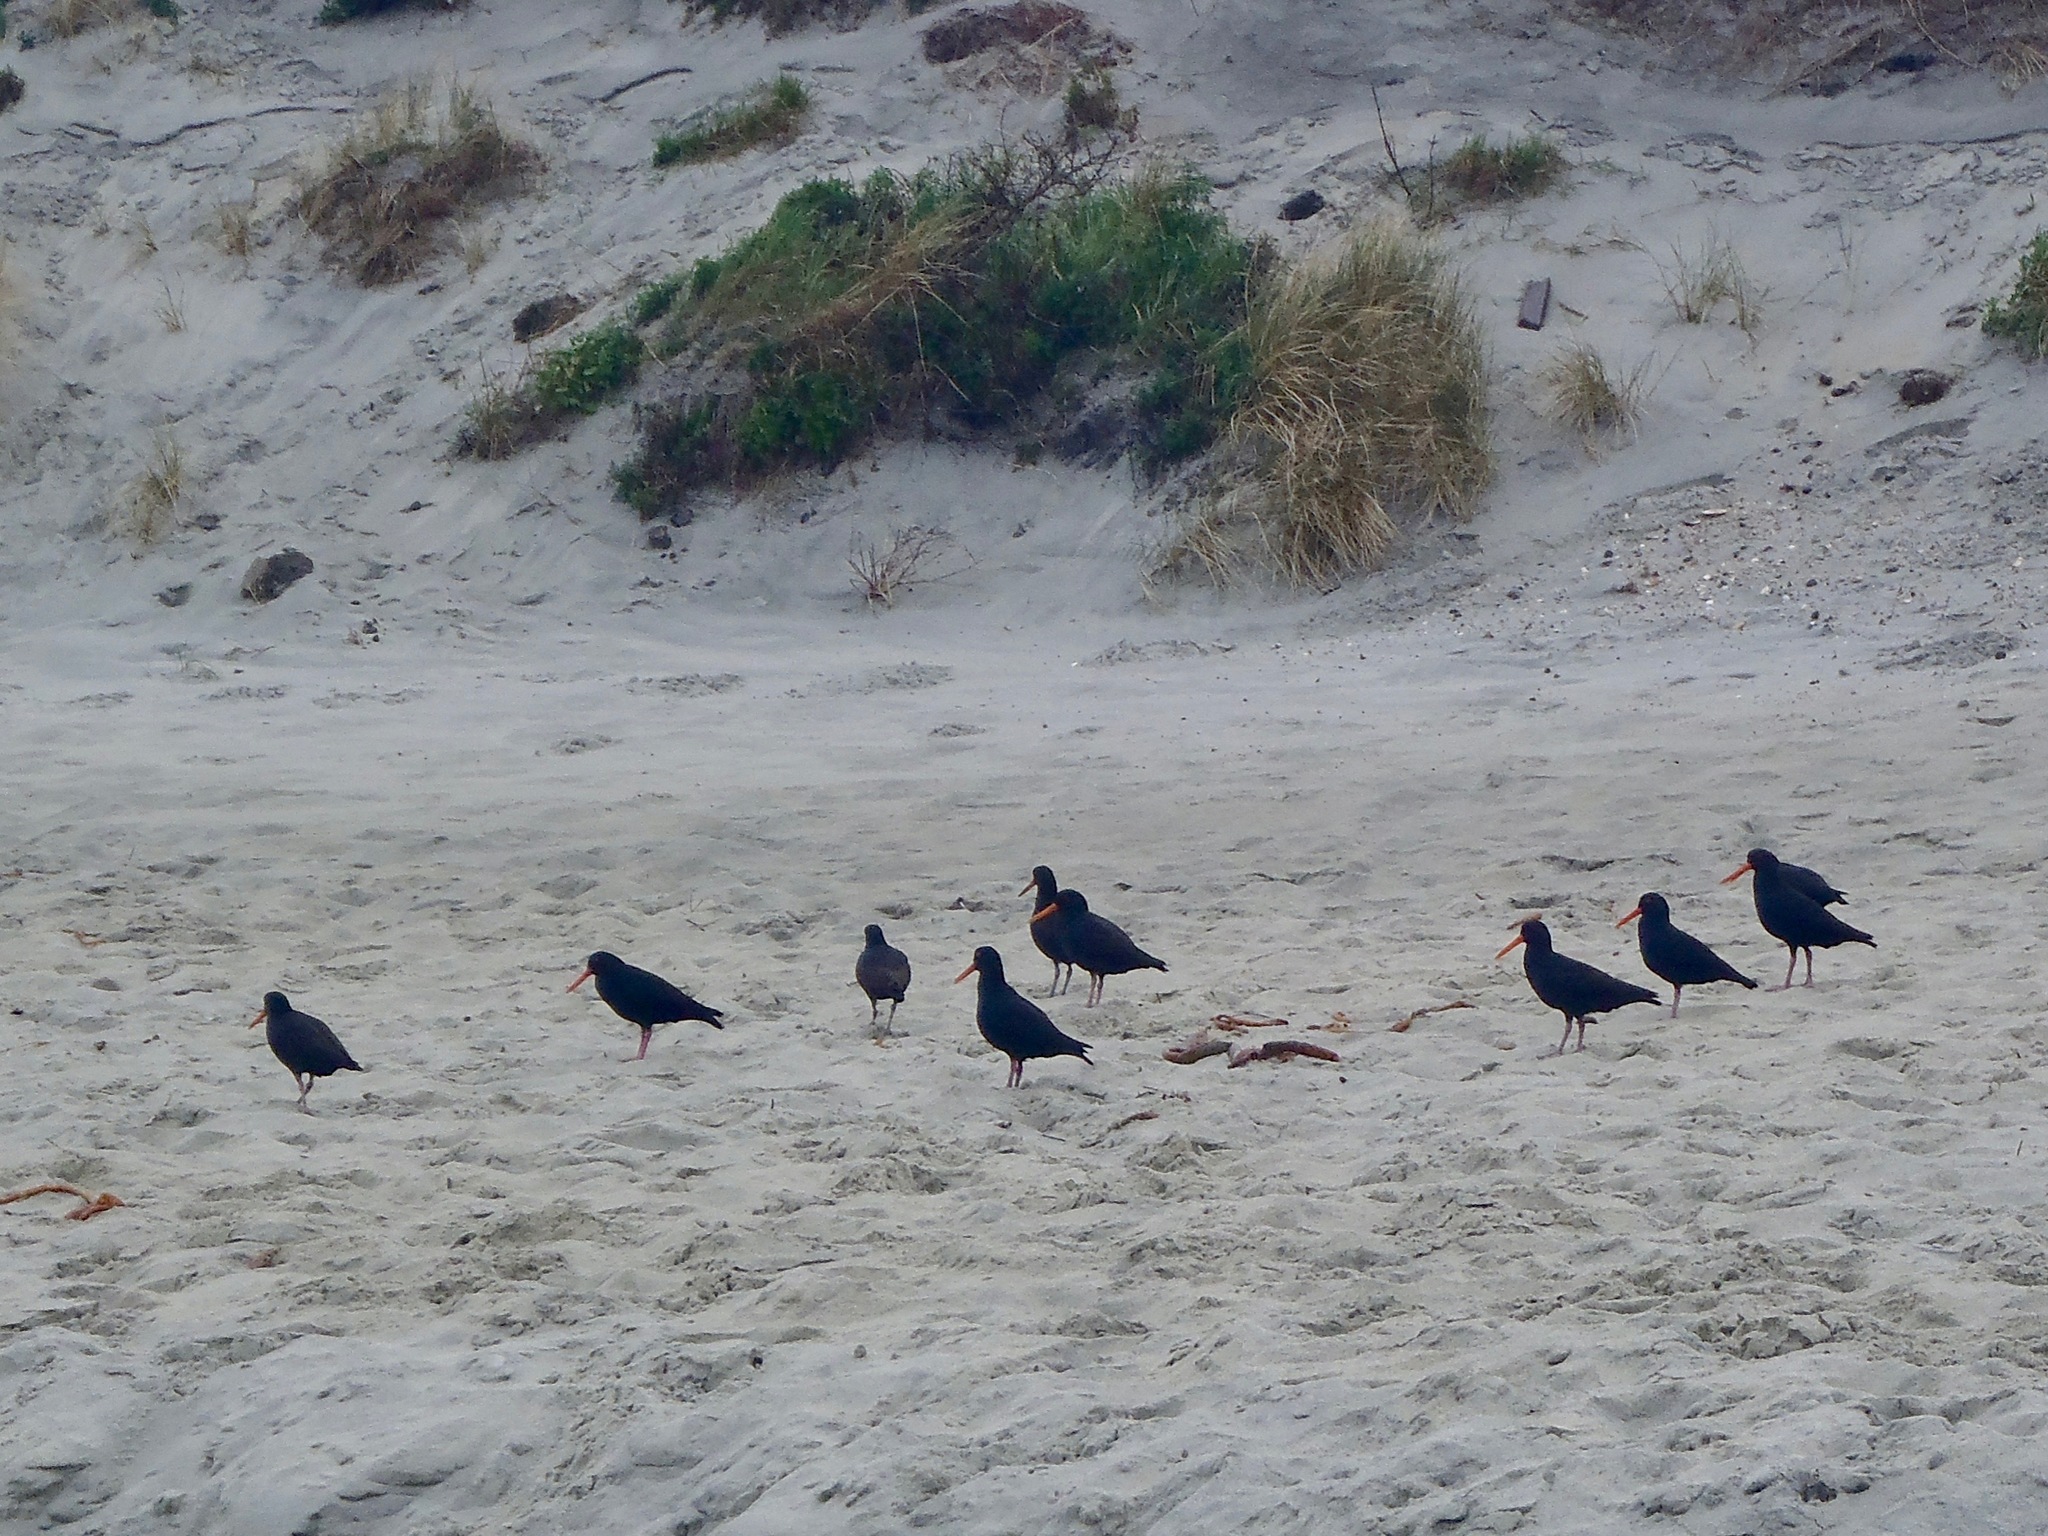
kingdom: Animalia
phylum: Chordata
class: Aves
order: Charadriiformes
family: Haematopodidae
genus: Haematopus
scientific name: Haematopus unicolor
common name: Variable oystercatcher
